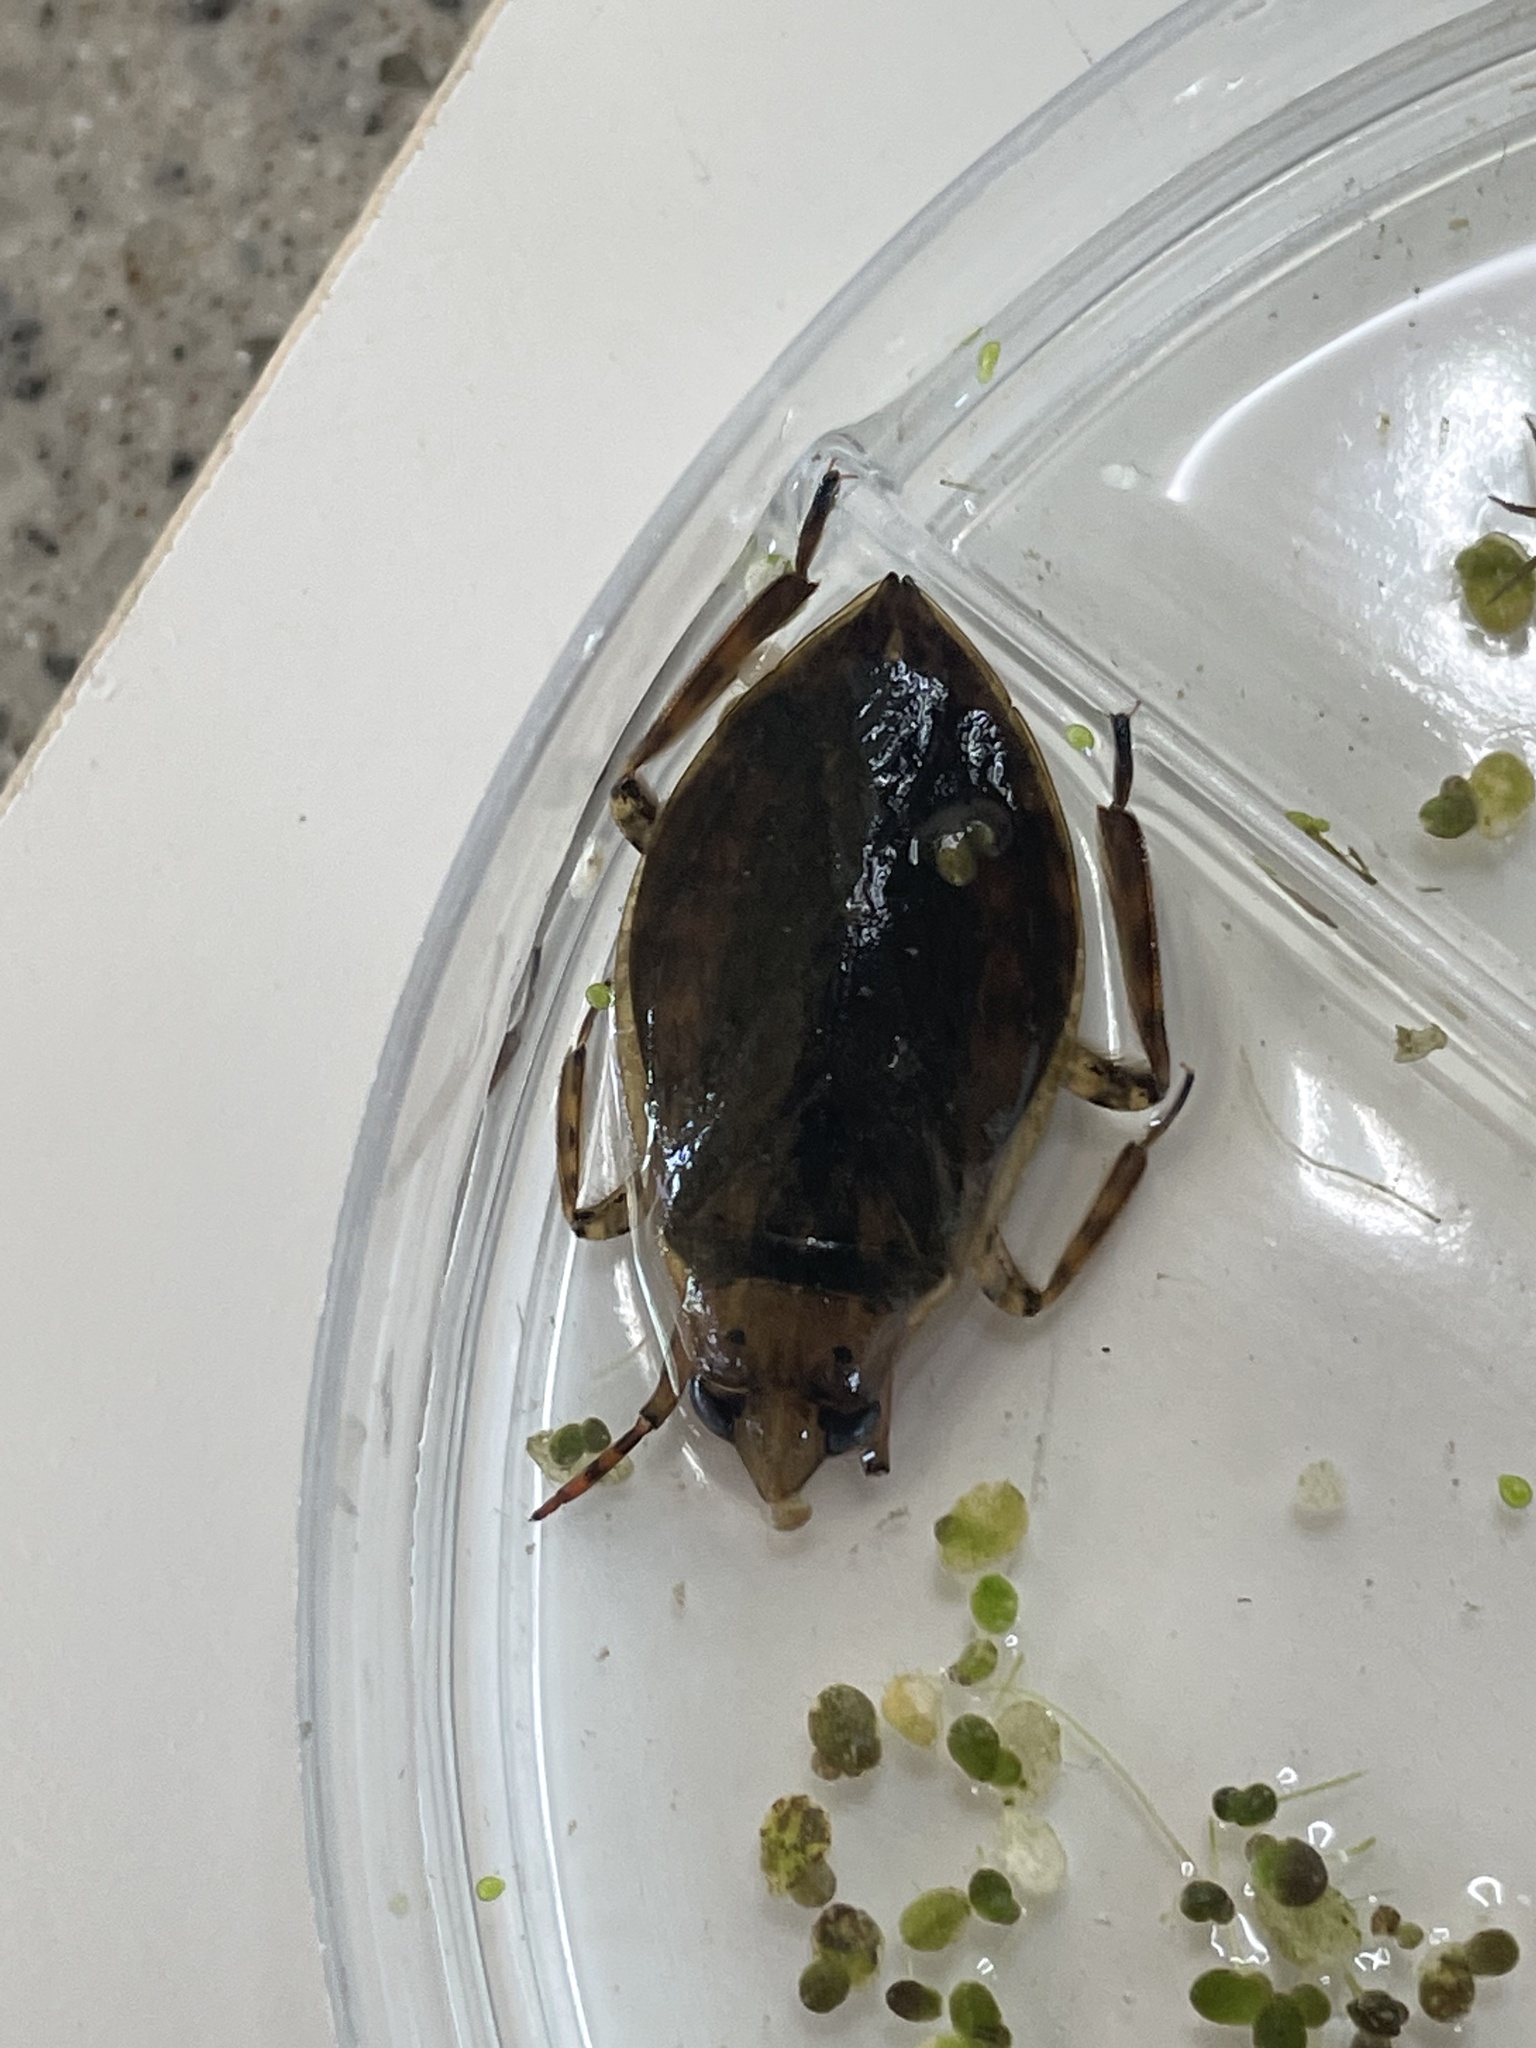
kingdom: Animalia
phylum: Arthropoda
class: Insecta
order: Hemiptera
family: Belostomatidae
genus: Belostoma
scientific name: Belostoma
